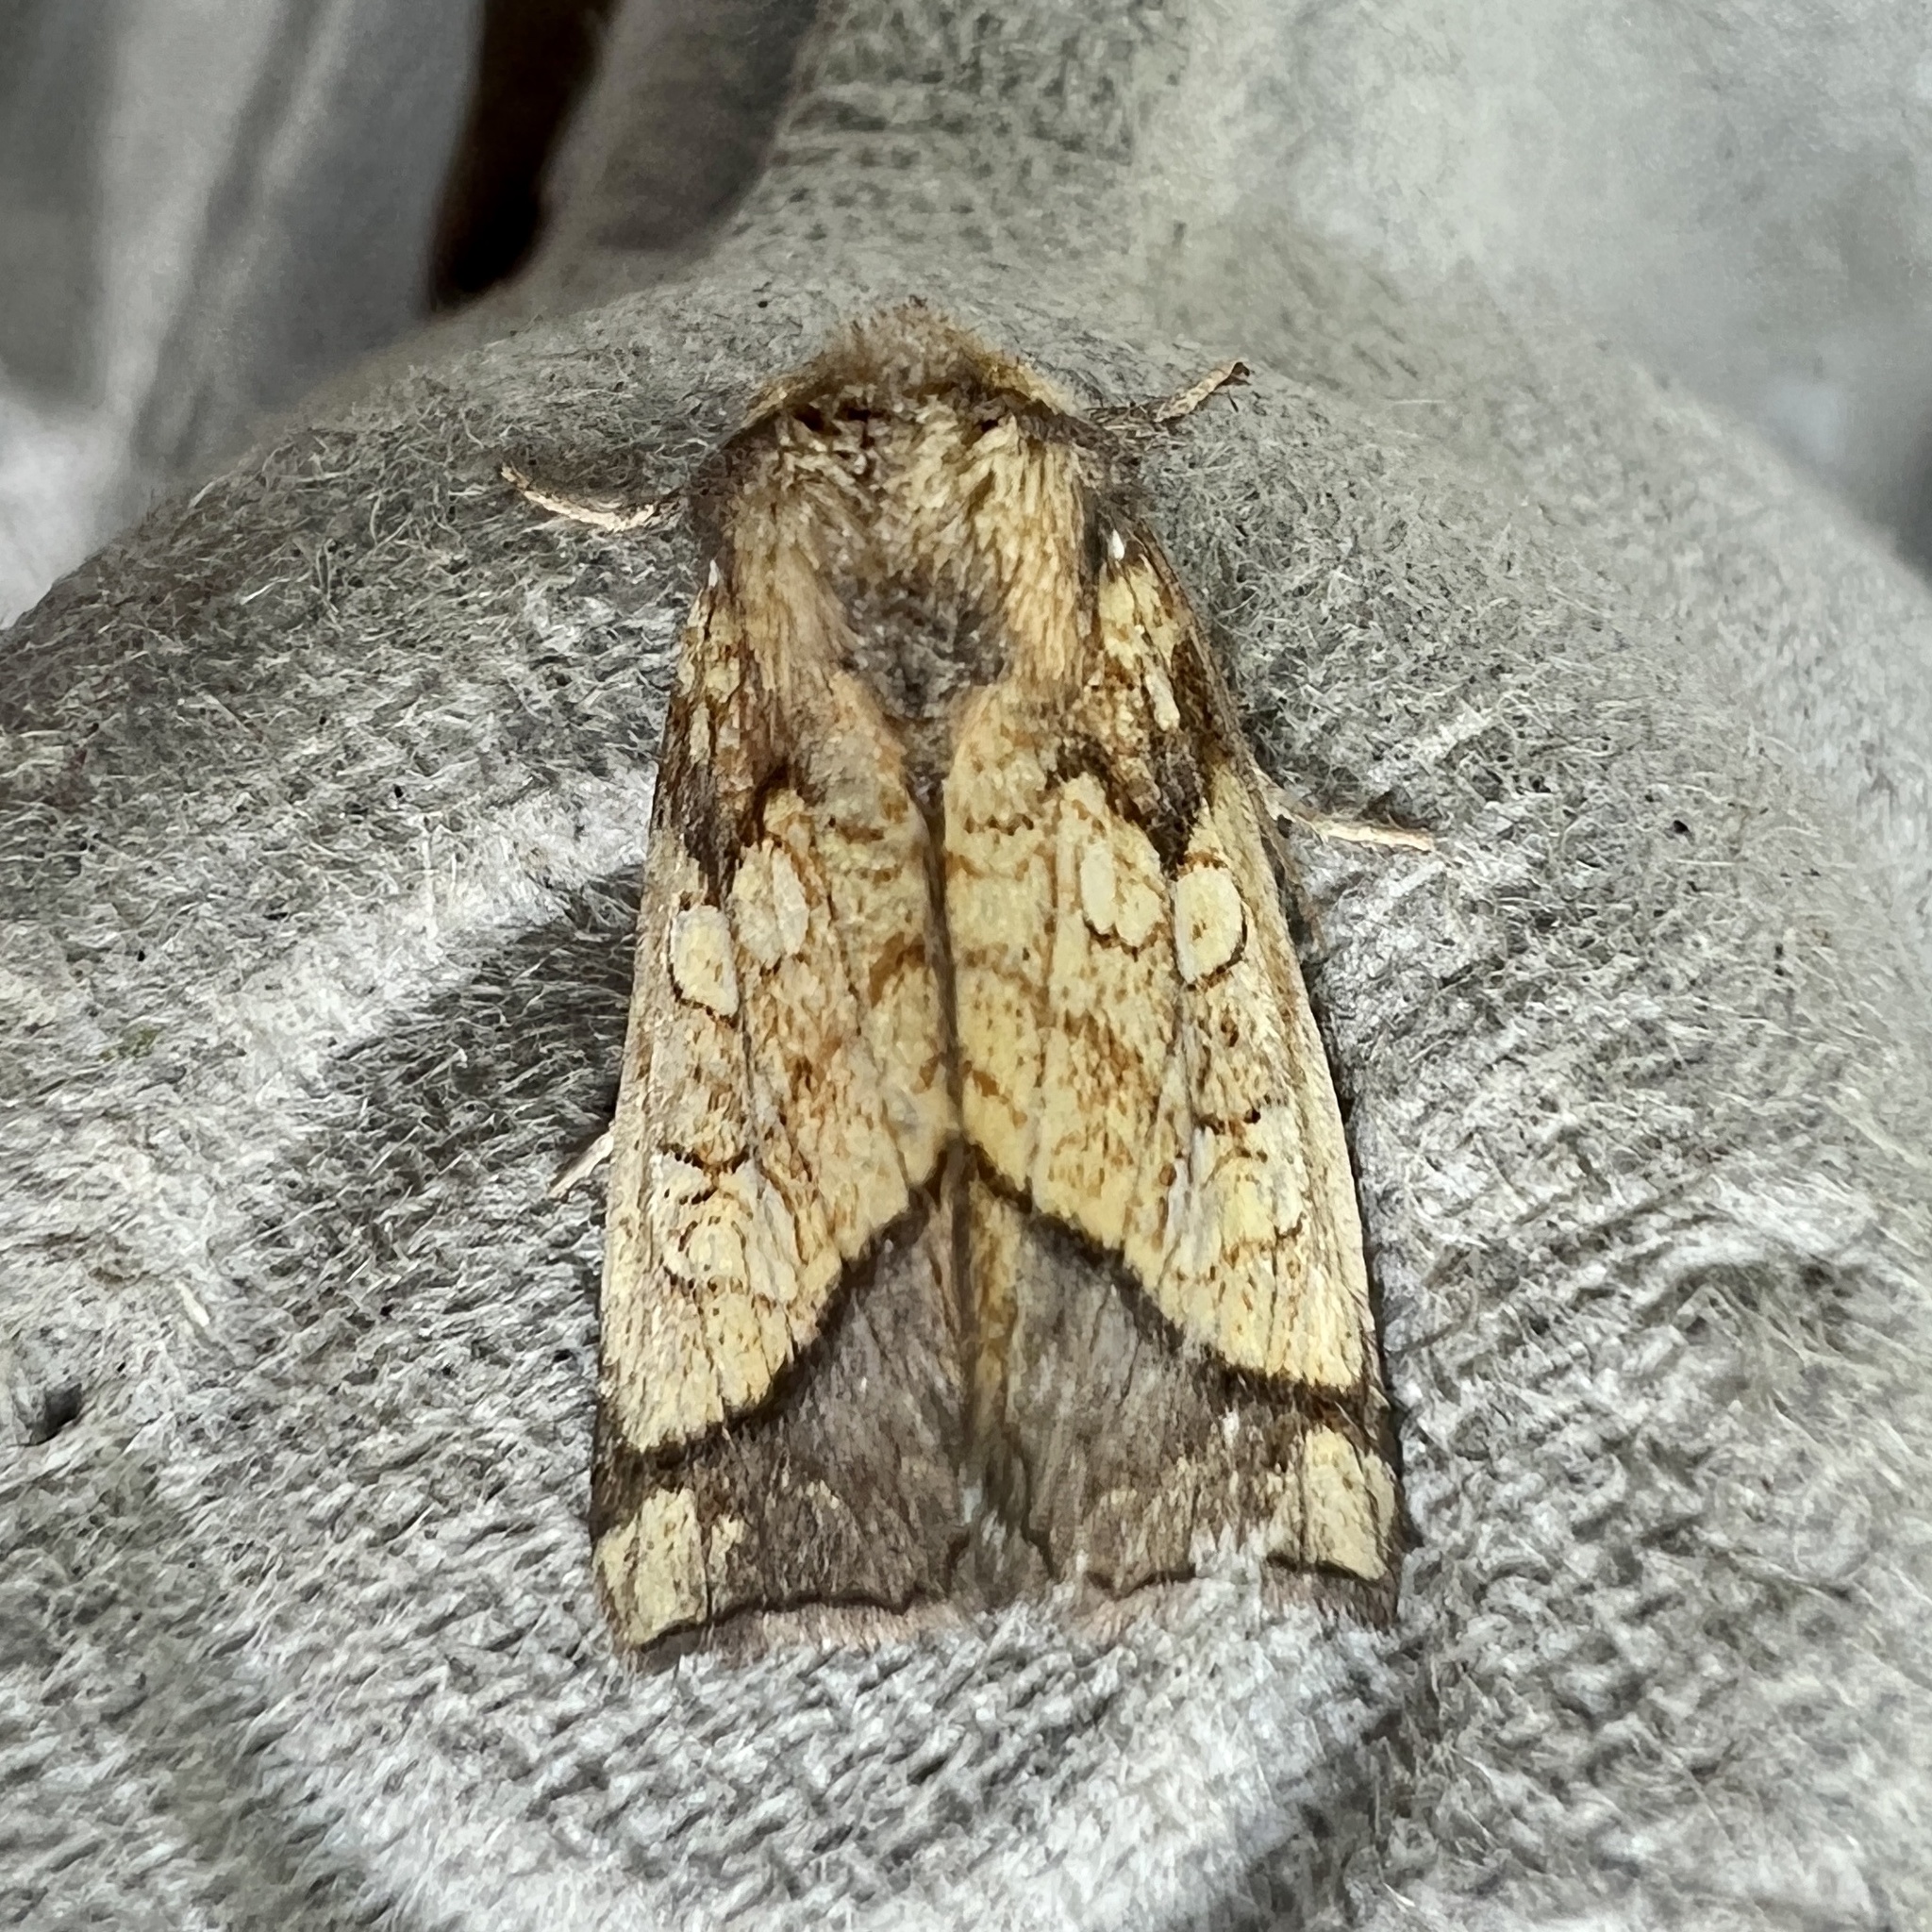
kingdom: Animalia
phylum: Arthropoda
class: Insecta
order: Lepidoptera
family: Noctuidae
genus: Papaipema
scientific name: Papaipema rigida
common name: Rigid sunflower borer moth
